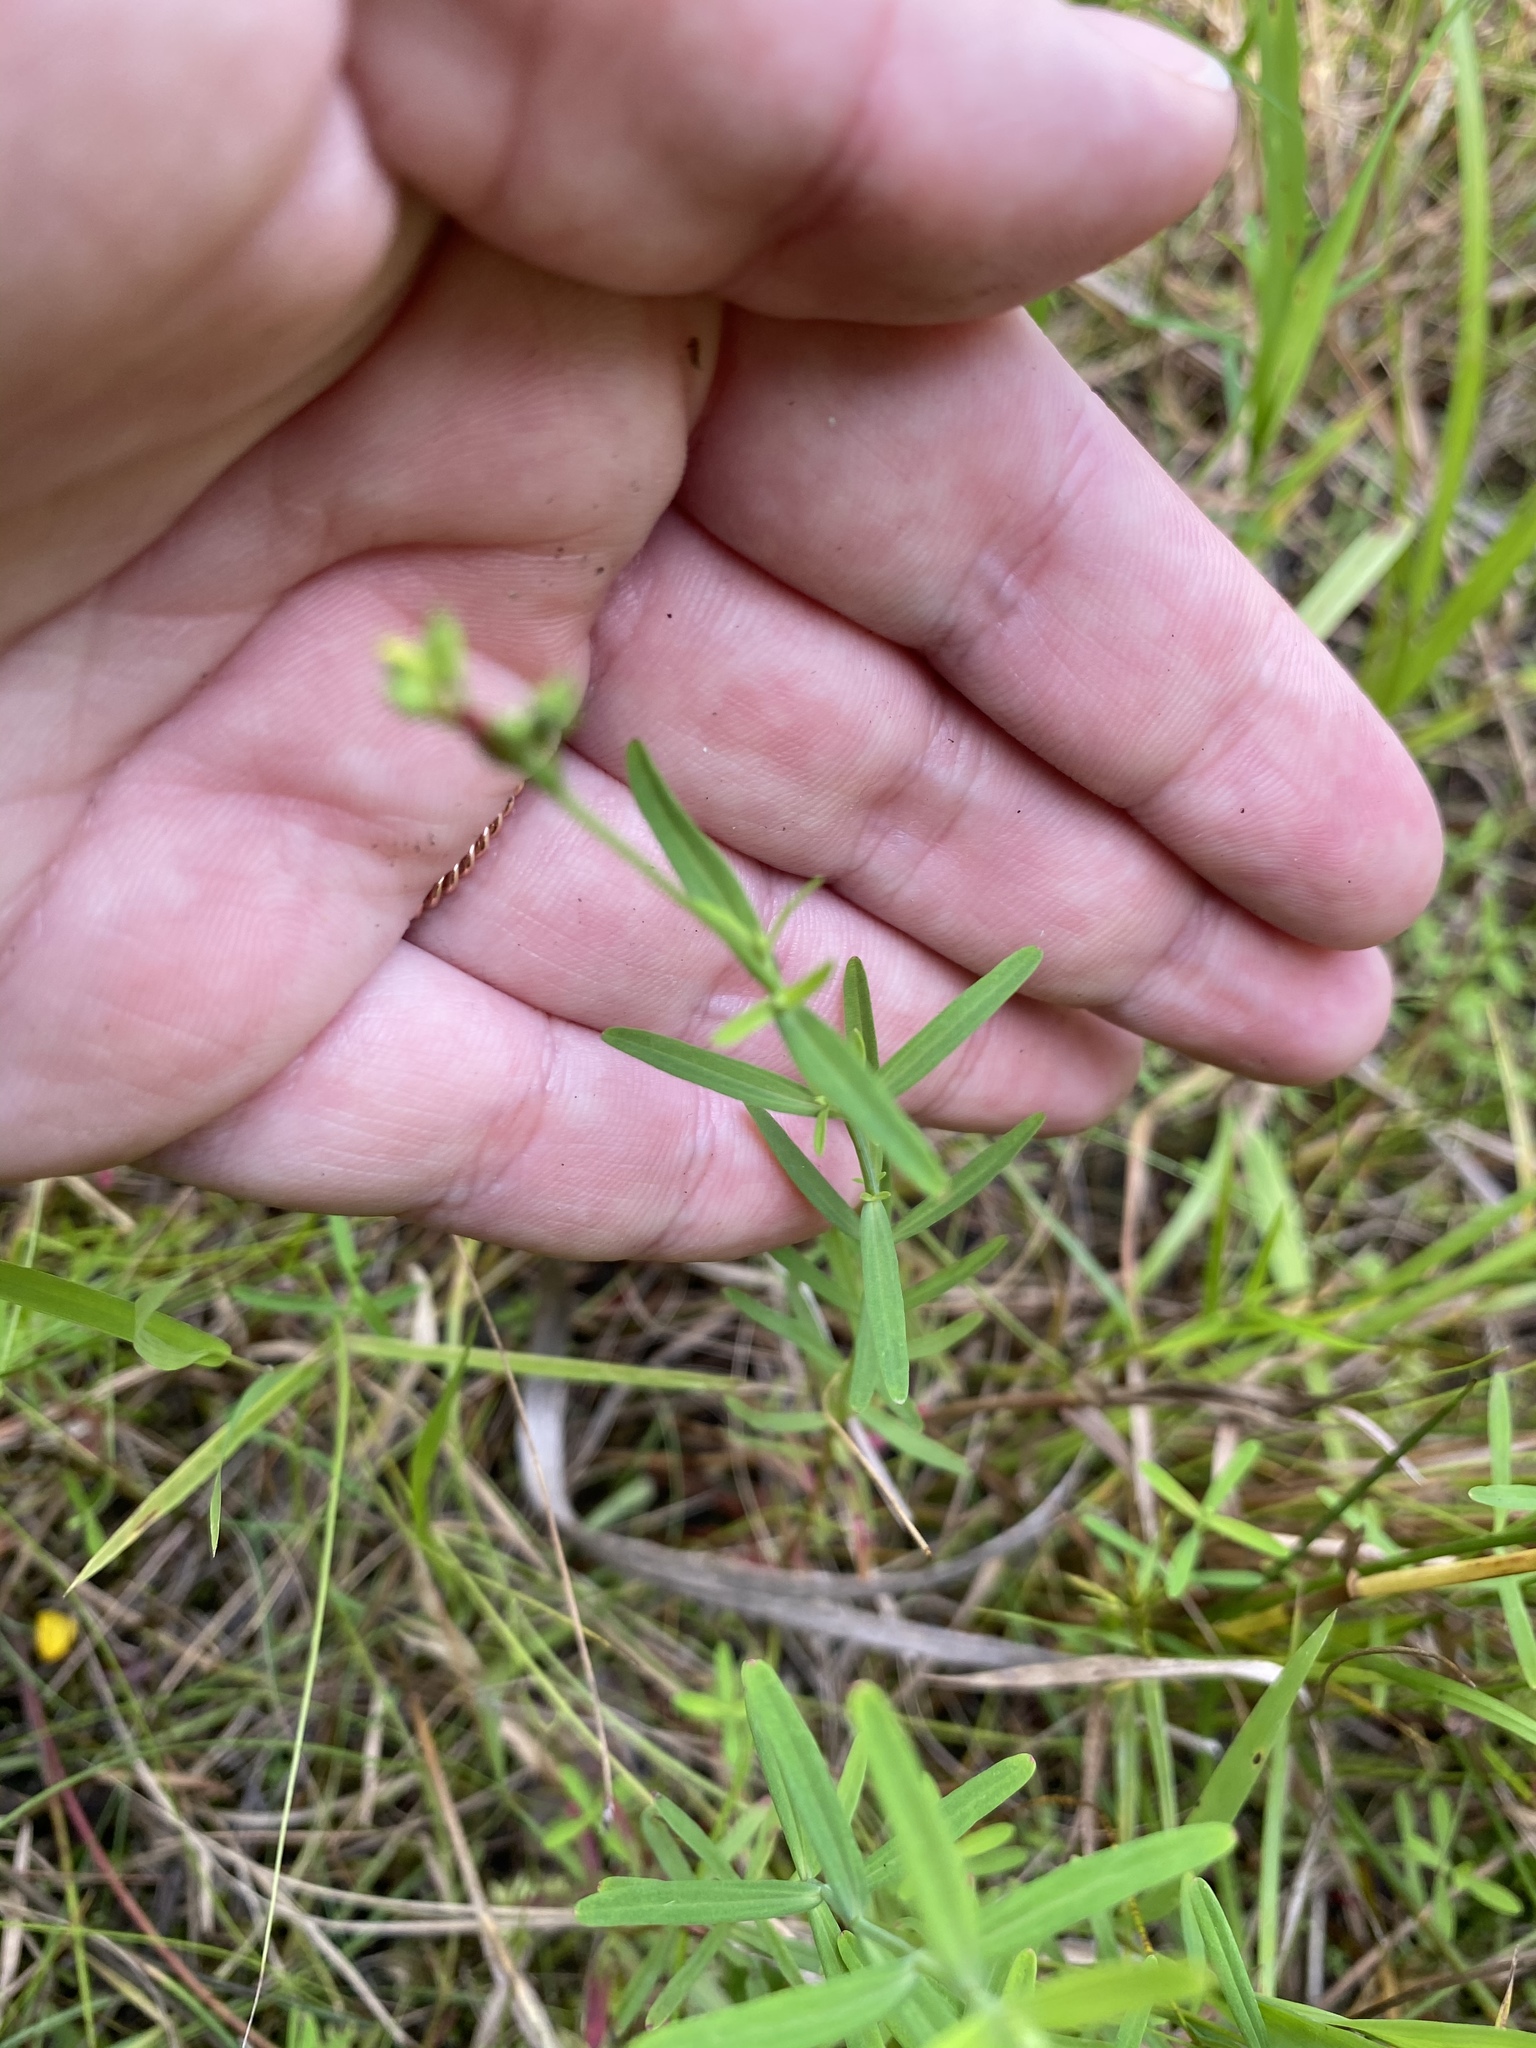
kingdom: Plantae
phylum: Tracheophyta
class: Magnoliopsida
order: Malpighiales
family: Hypericaceae
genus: Hypericum
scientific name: Hypericum canadense
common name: Irish st. john's-wort
